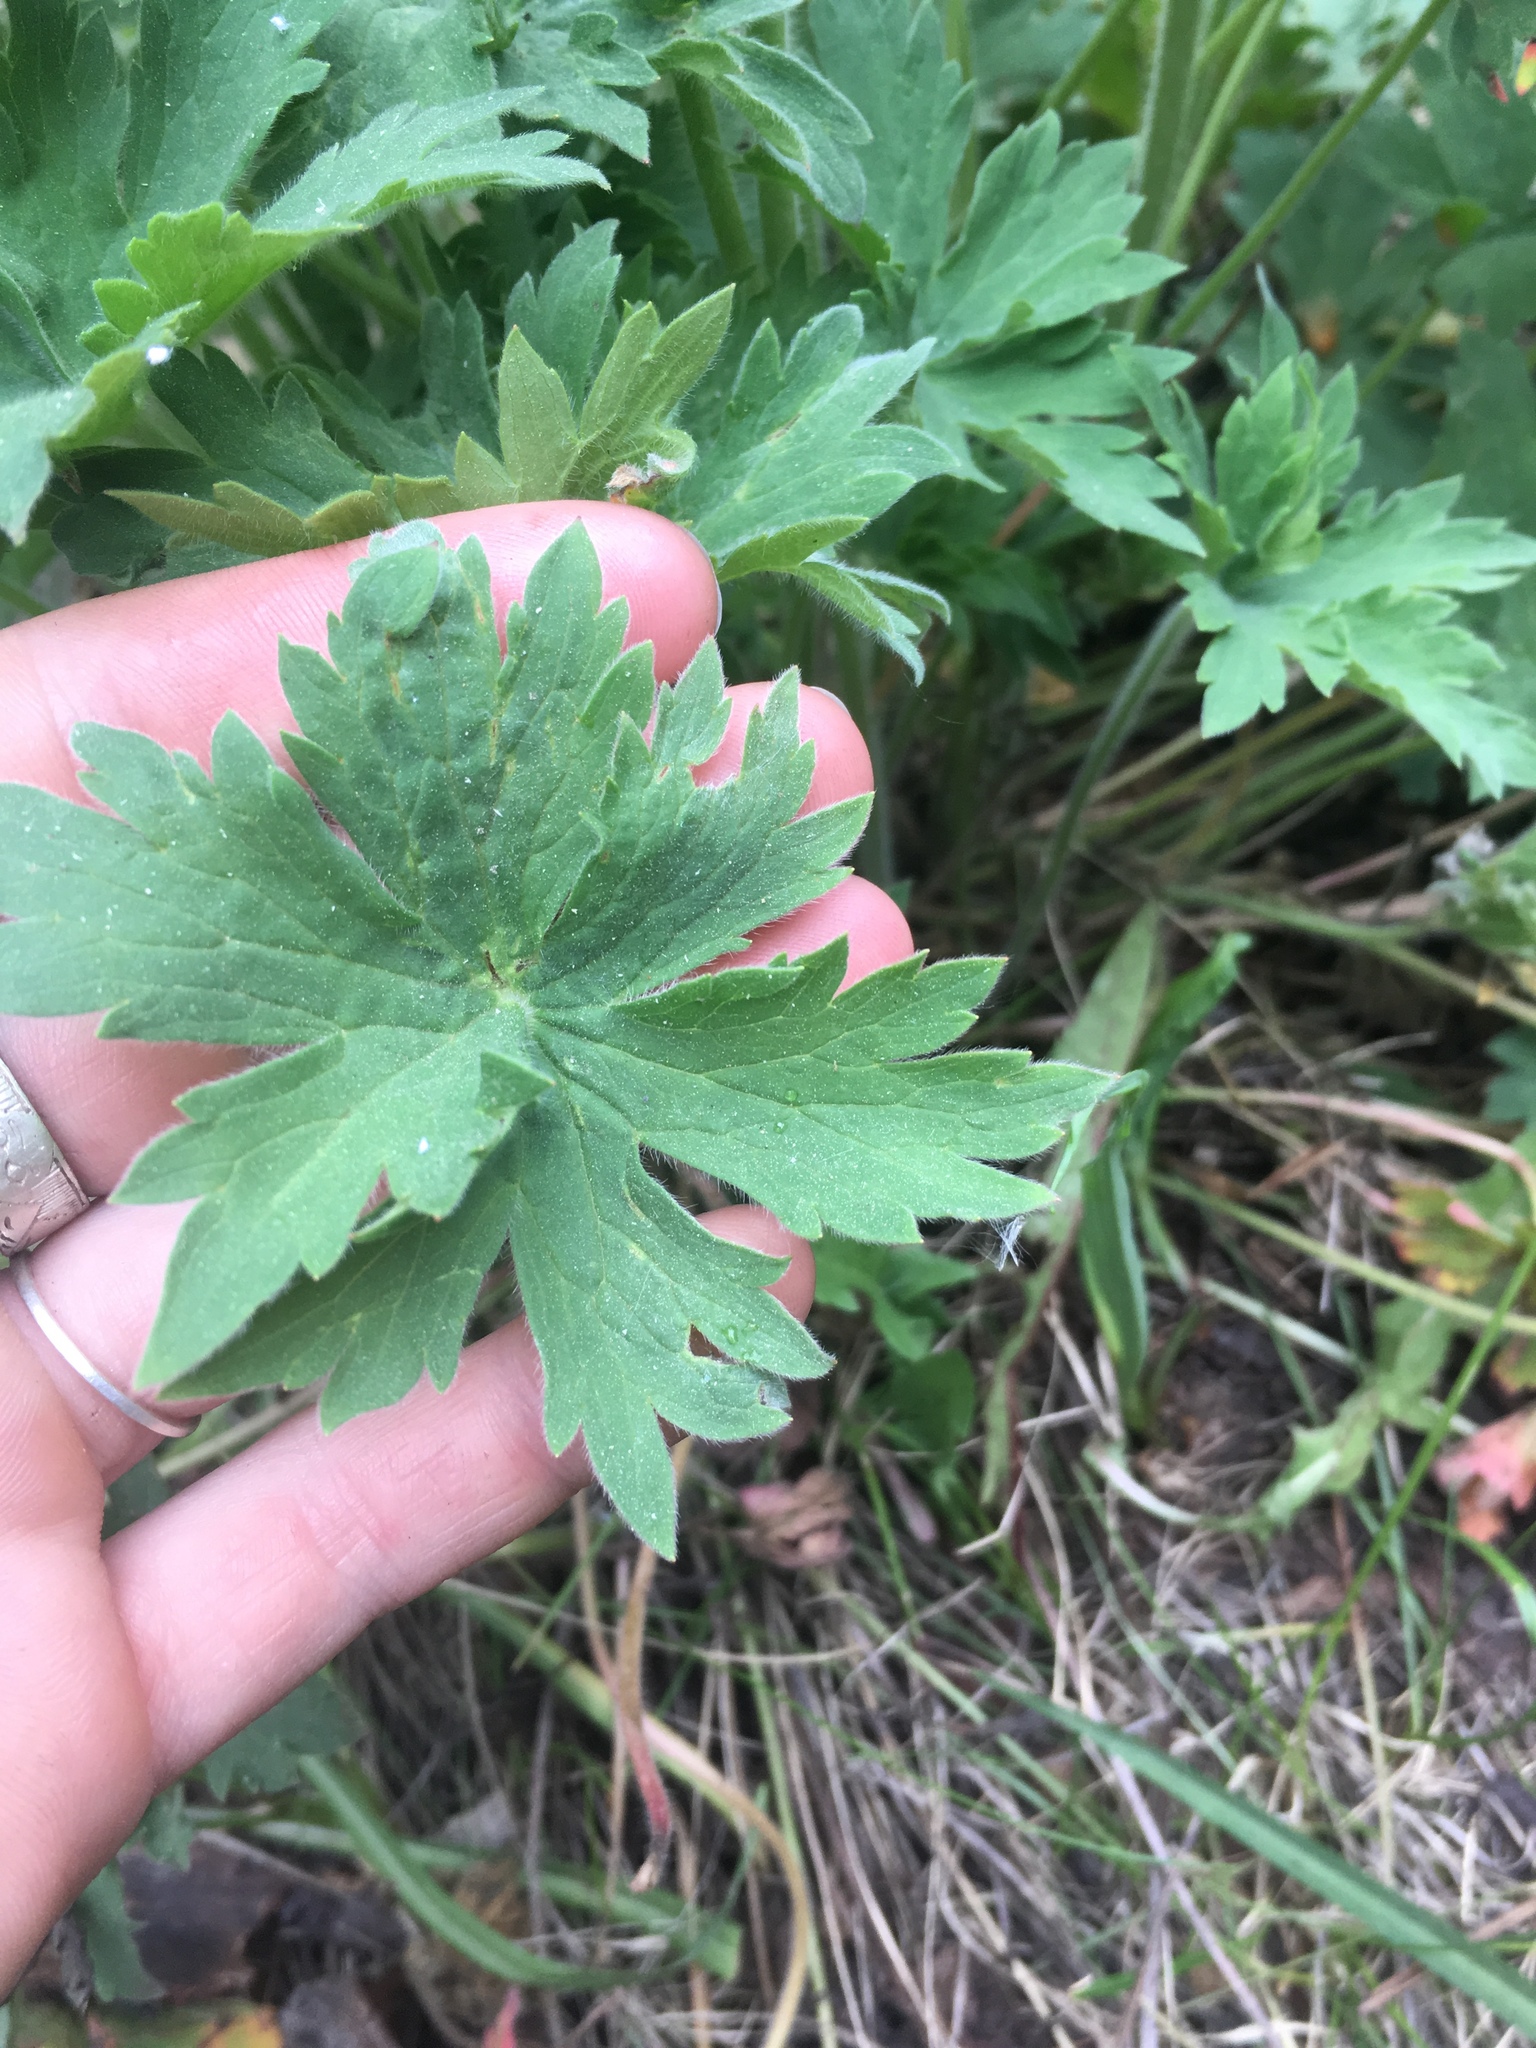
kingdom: Plantae
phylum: Tracheophyta
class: Magnoliopsida
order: Geraniales
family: Geraniaceae
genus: Geranium
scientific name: Geranium viscosissimum
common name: Purple geranium
